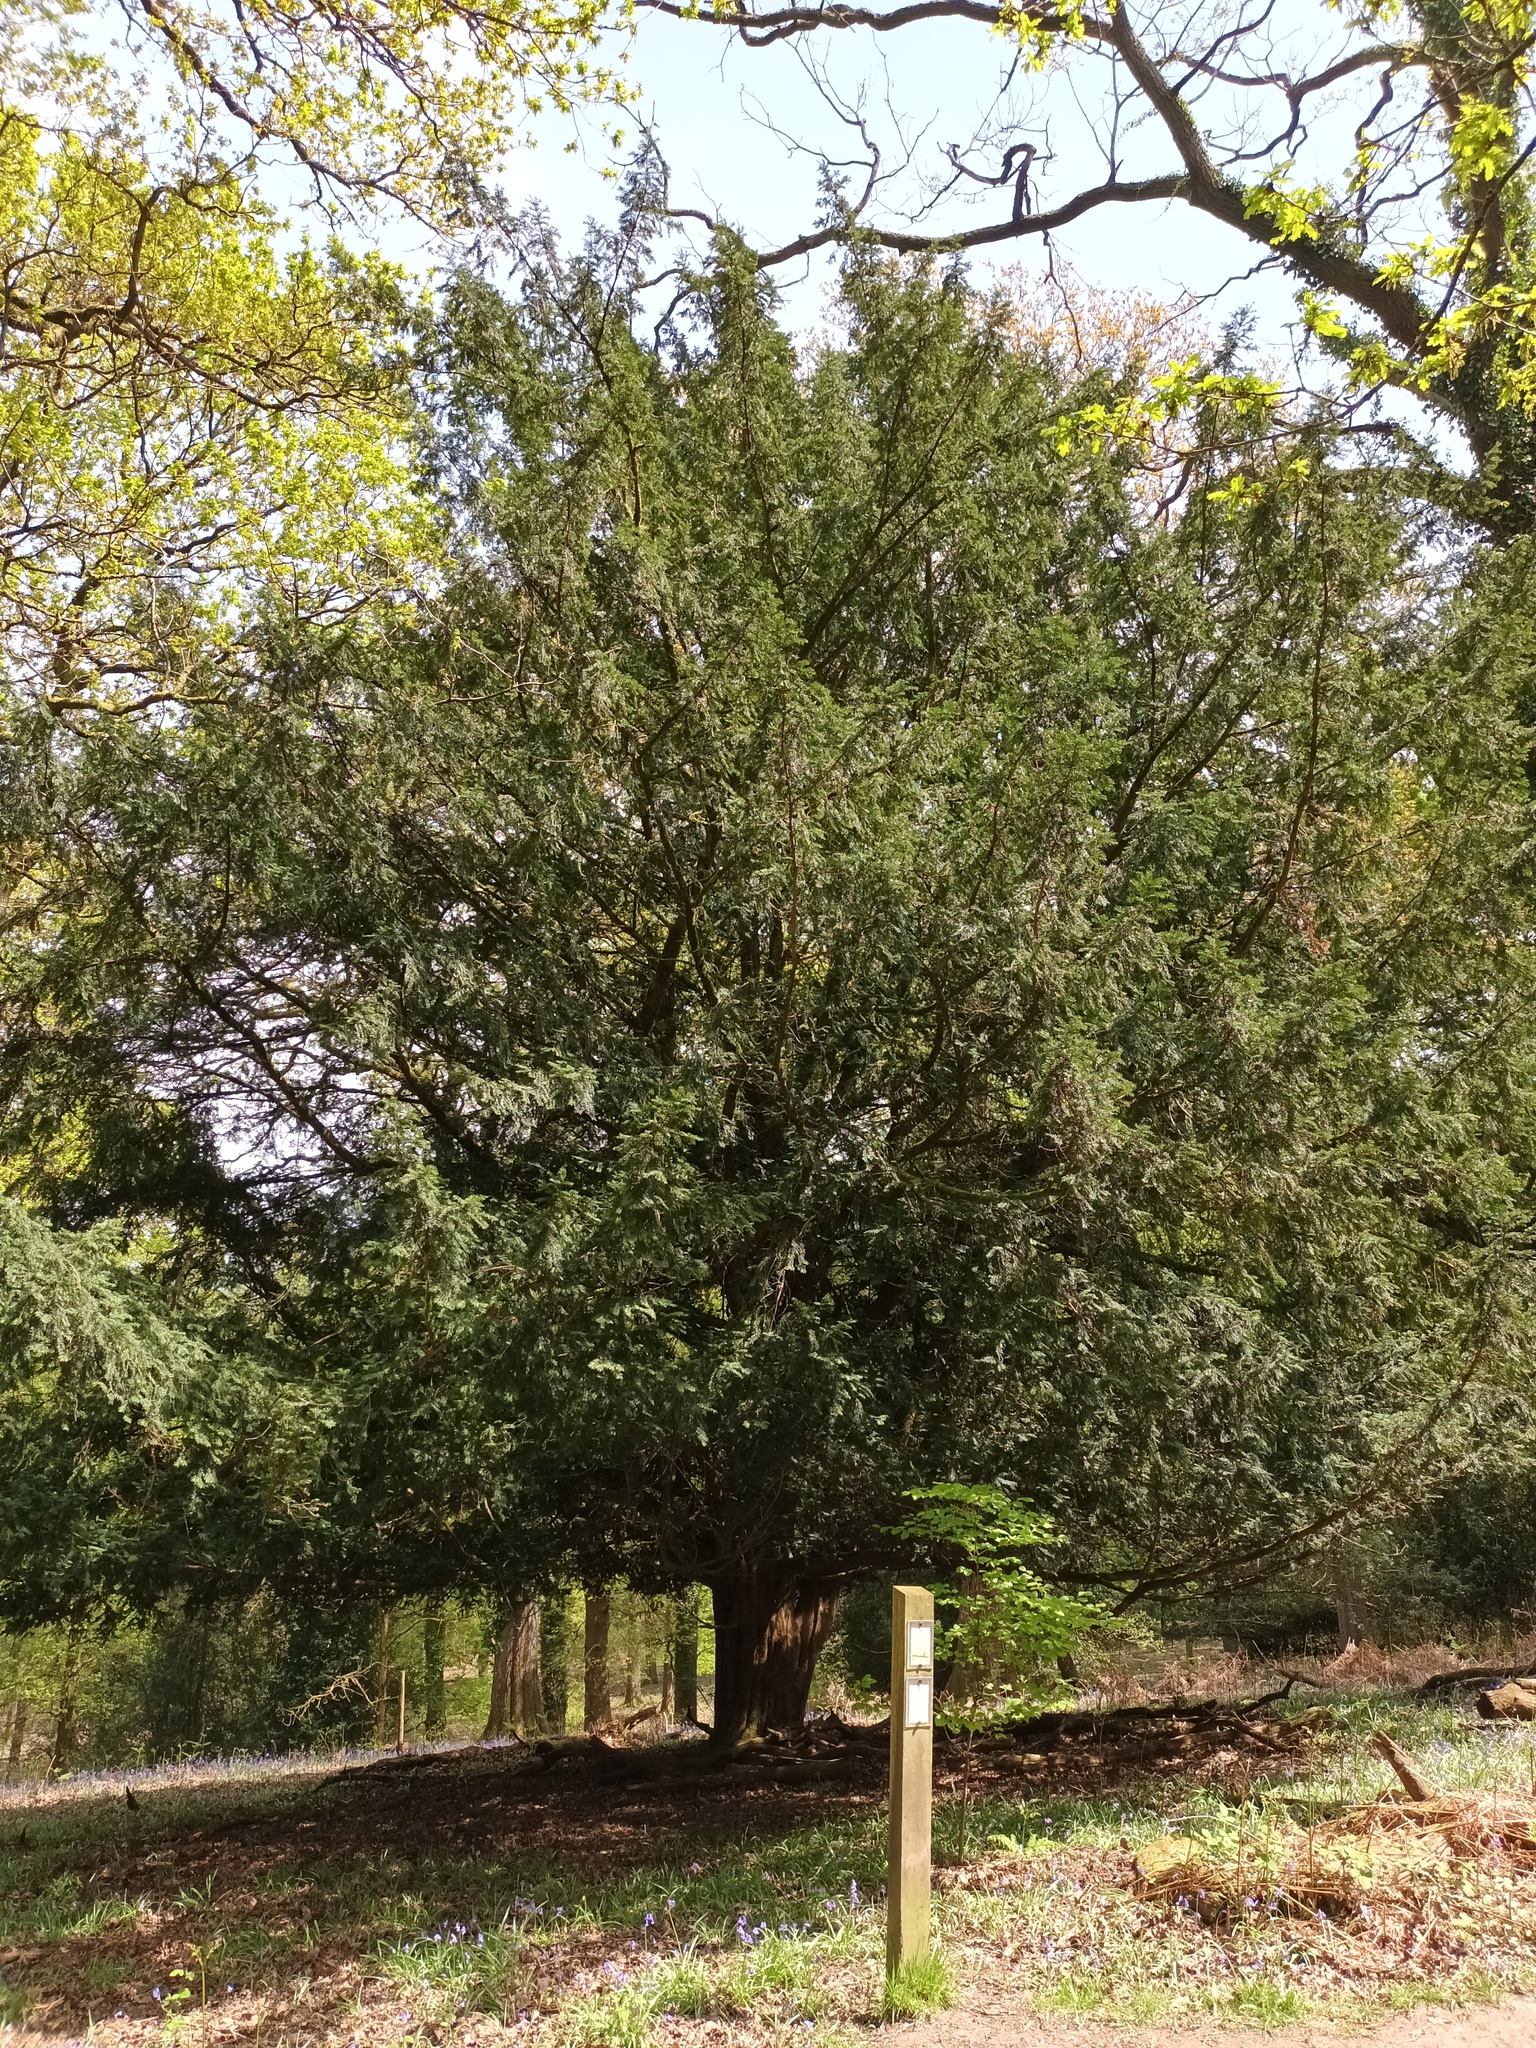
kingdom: Plantae
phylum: Tracheophyta
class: Pinopsida
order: Pinales
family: Taxaceae
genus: Taxus
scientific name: Taxus baccata
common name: Yew
